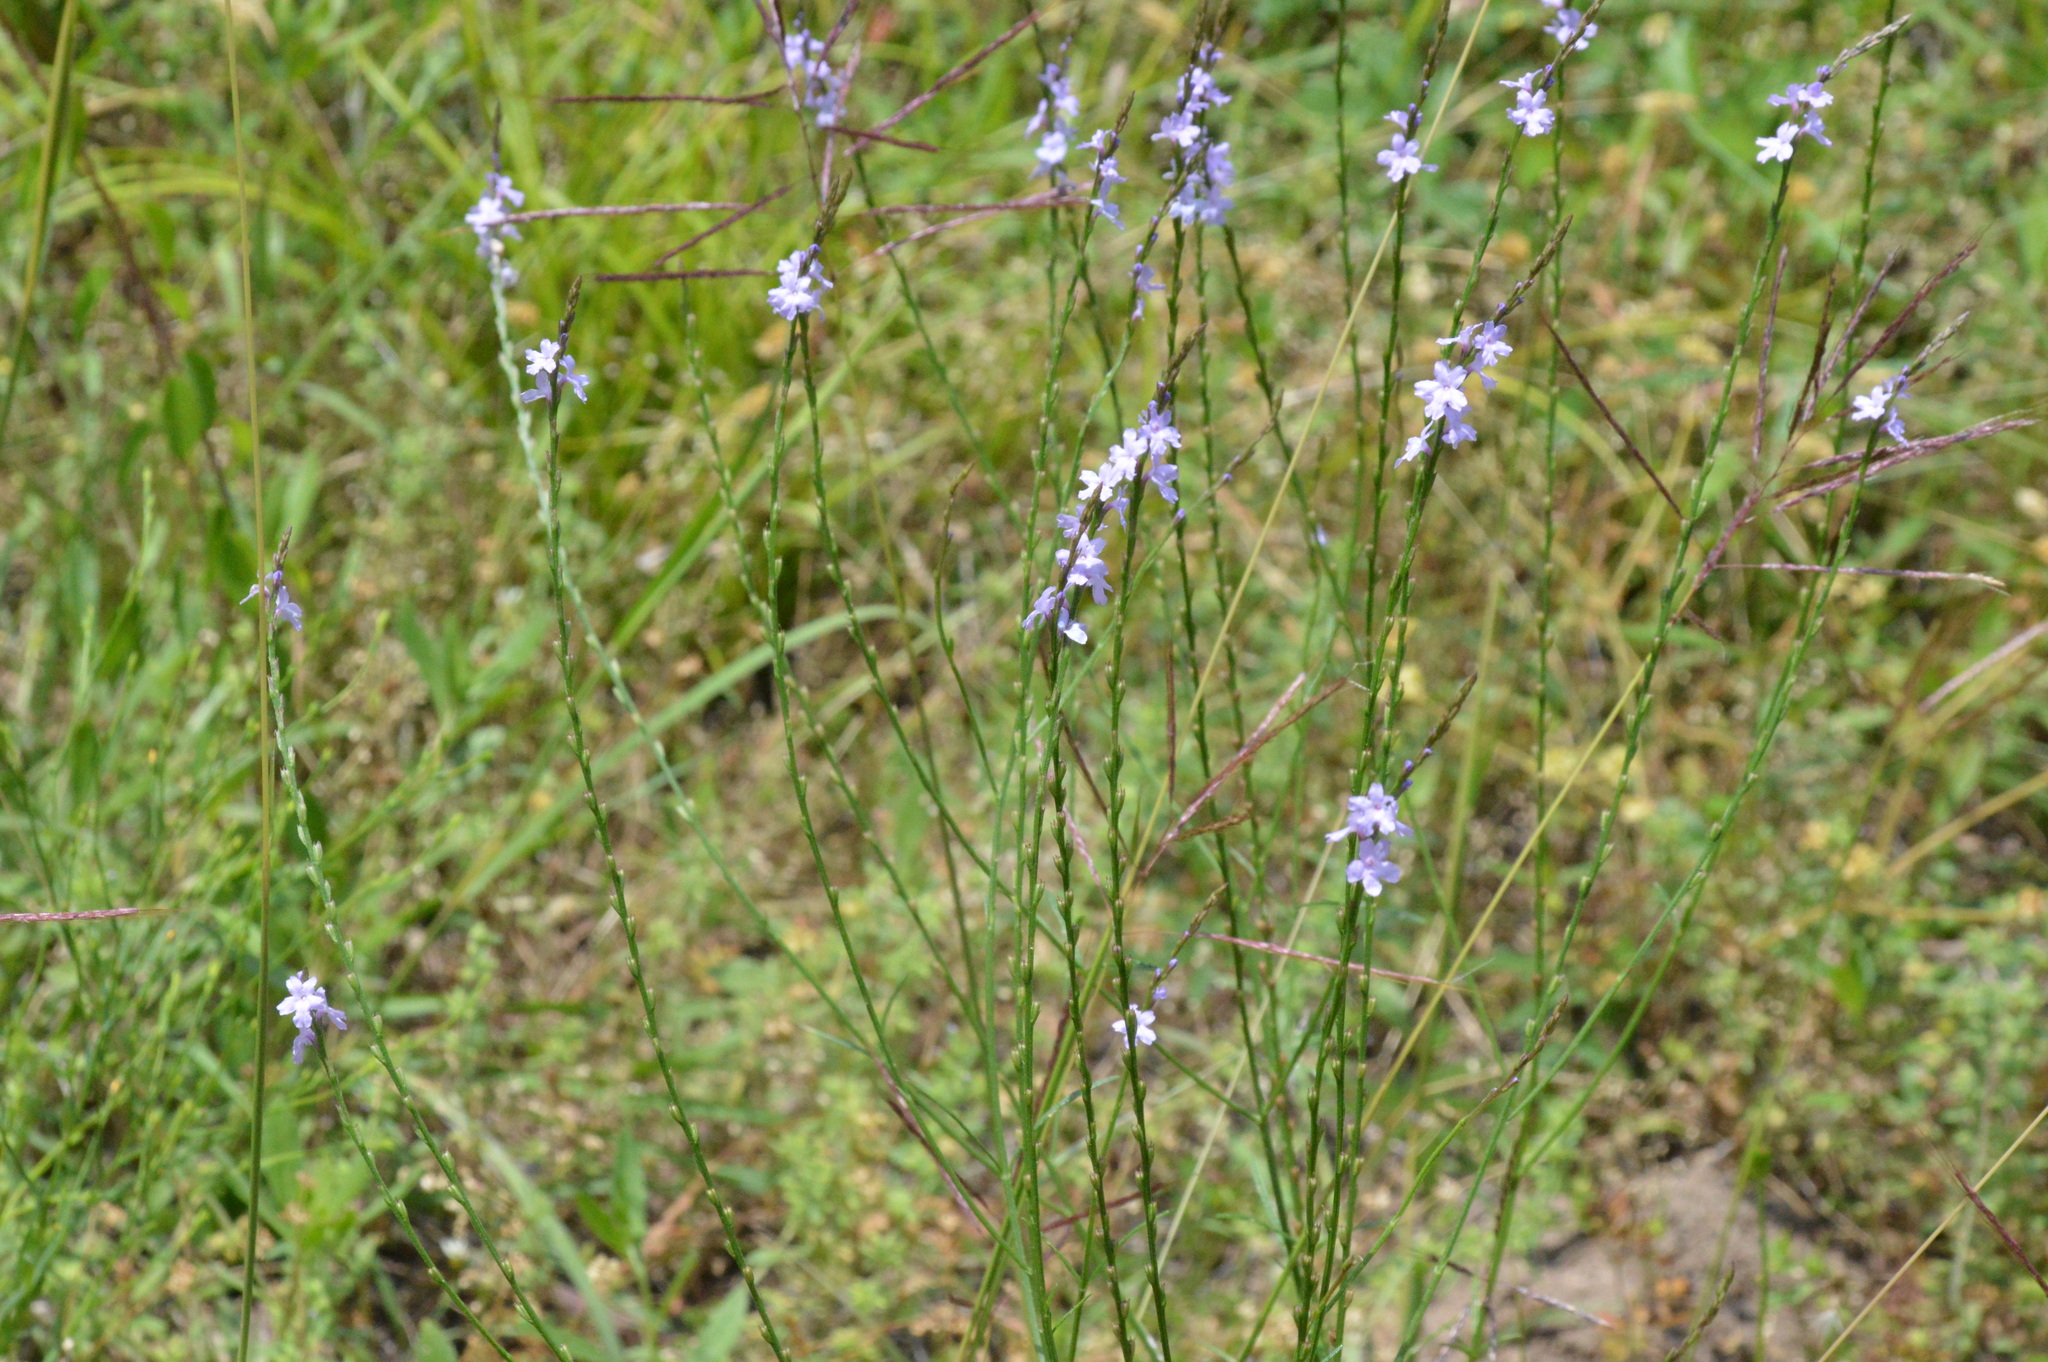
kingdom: Plantae
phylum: Tracheophyta
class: Magnoliopsida
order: Lamiales
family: Verbenaceae
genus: Verbena
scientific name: Verbena halei
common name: Texas vervain
